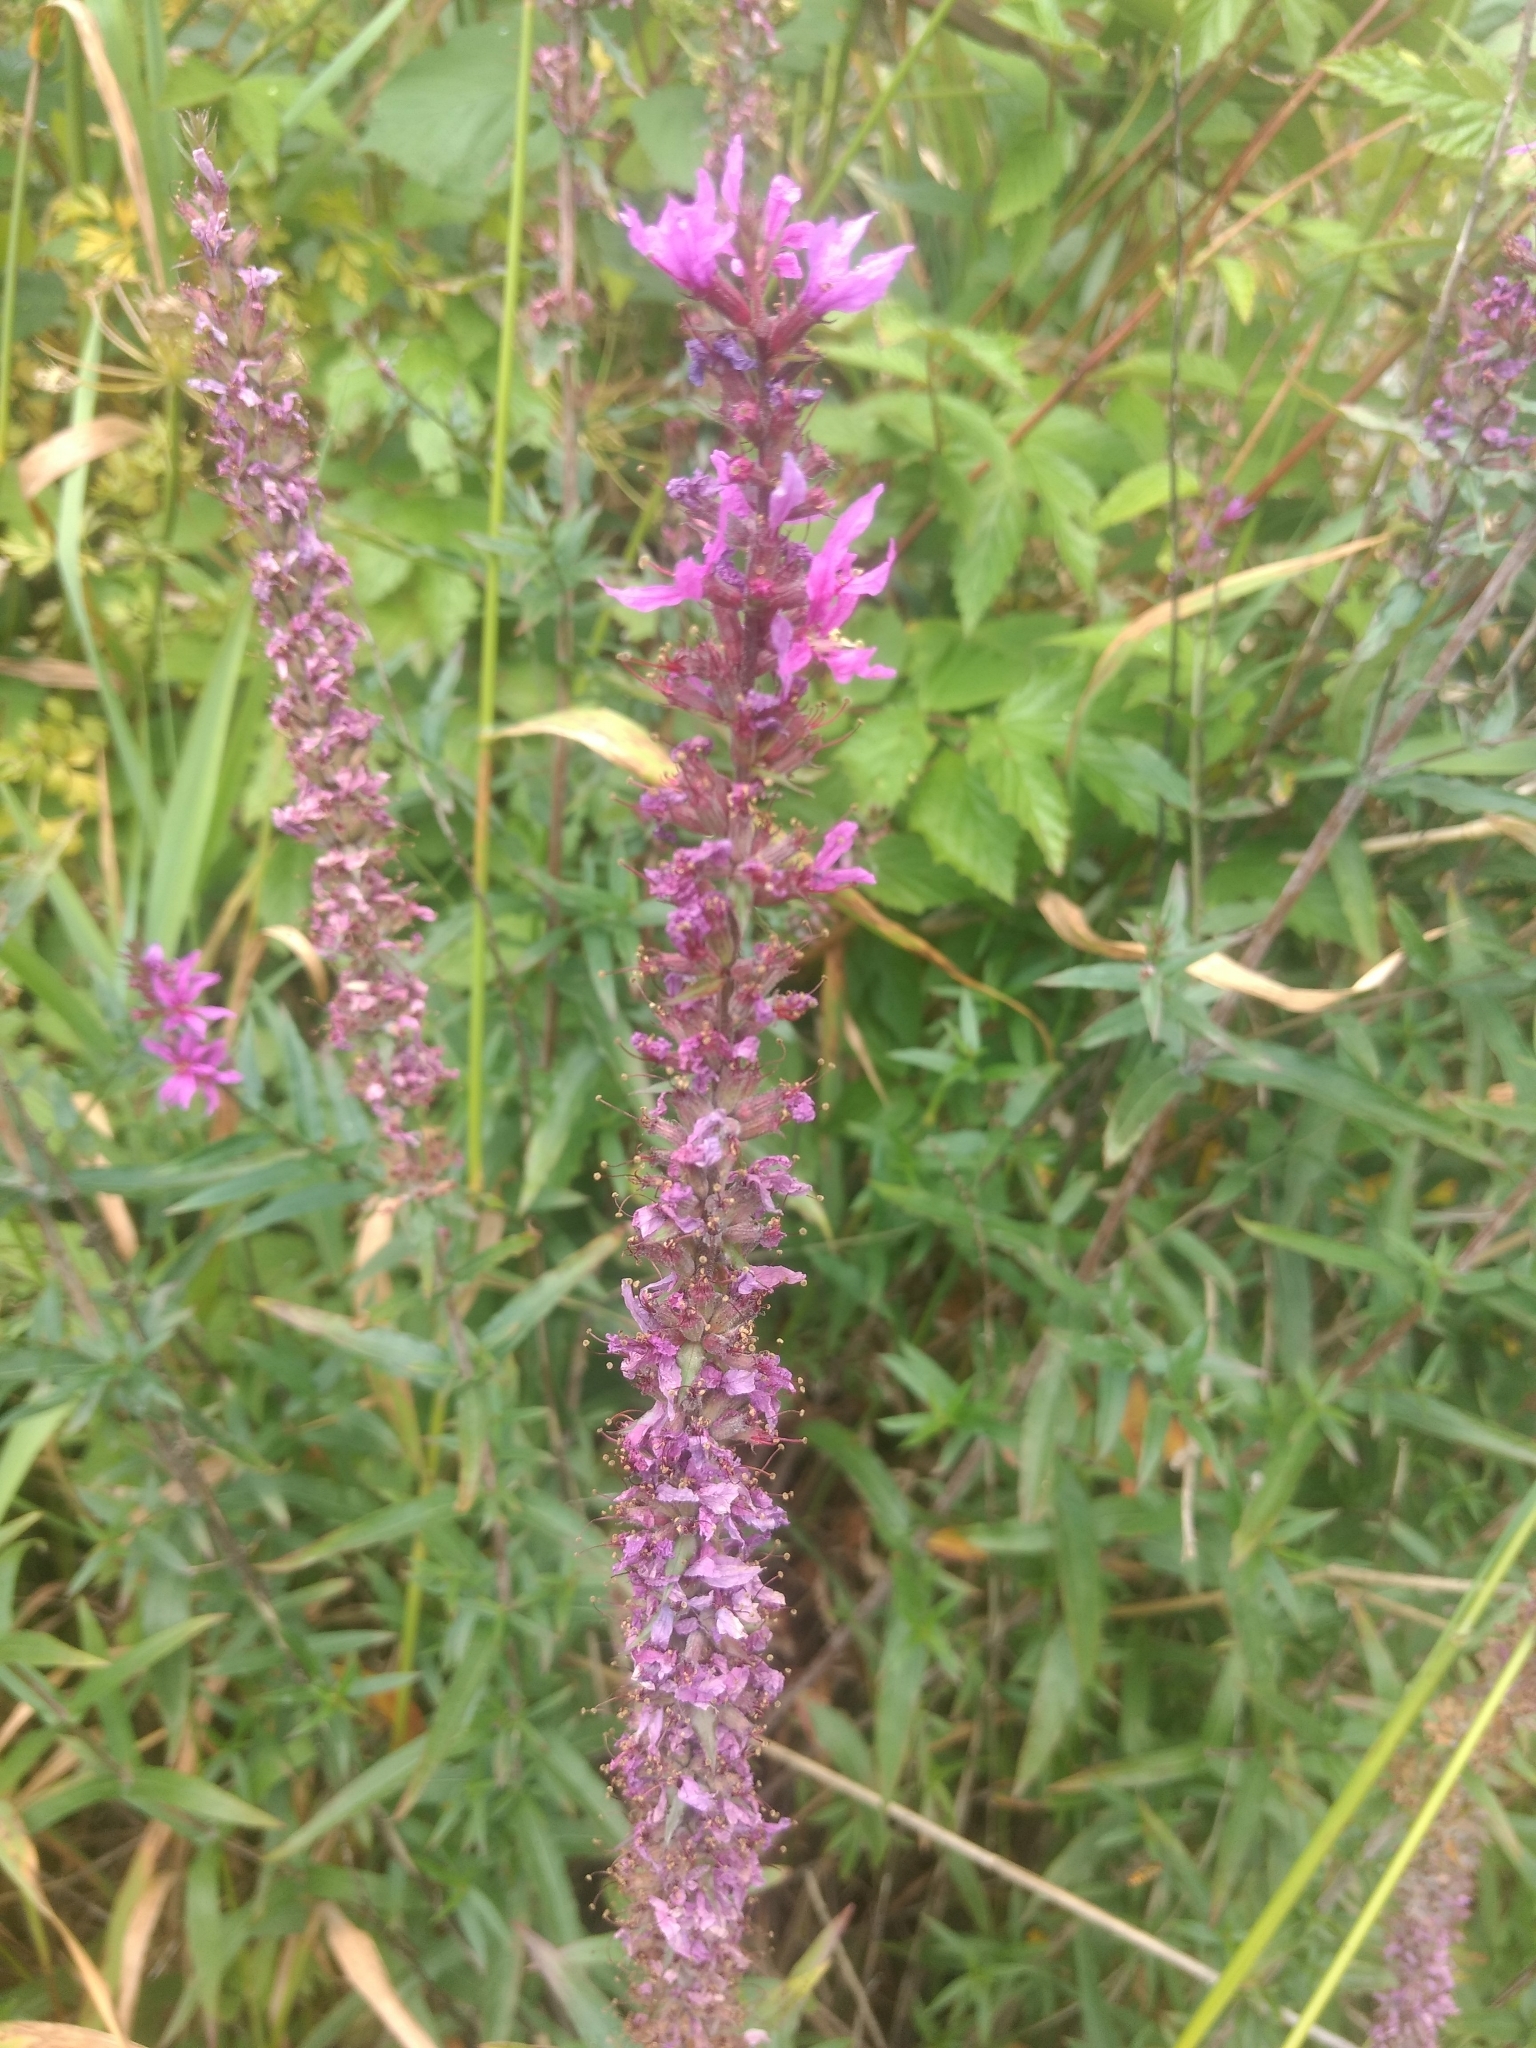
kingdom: Plantae
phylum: Tracheophyta
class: Magnoliopsida
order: Myrtales
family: Lythraceae
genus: Lythrum
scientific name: Lythrum salicaria
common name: Purple loosestrife
